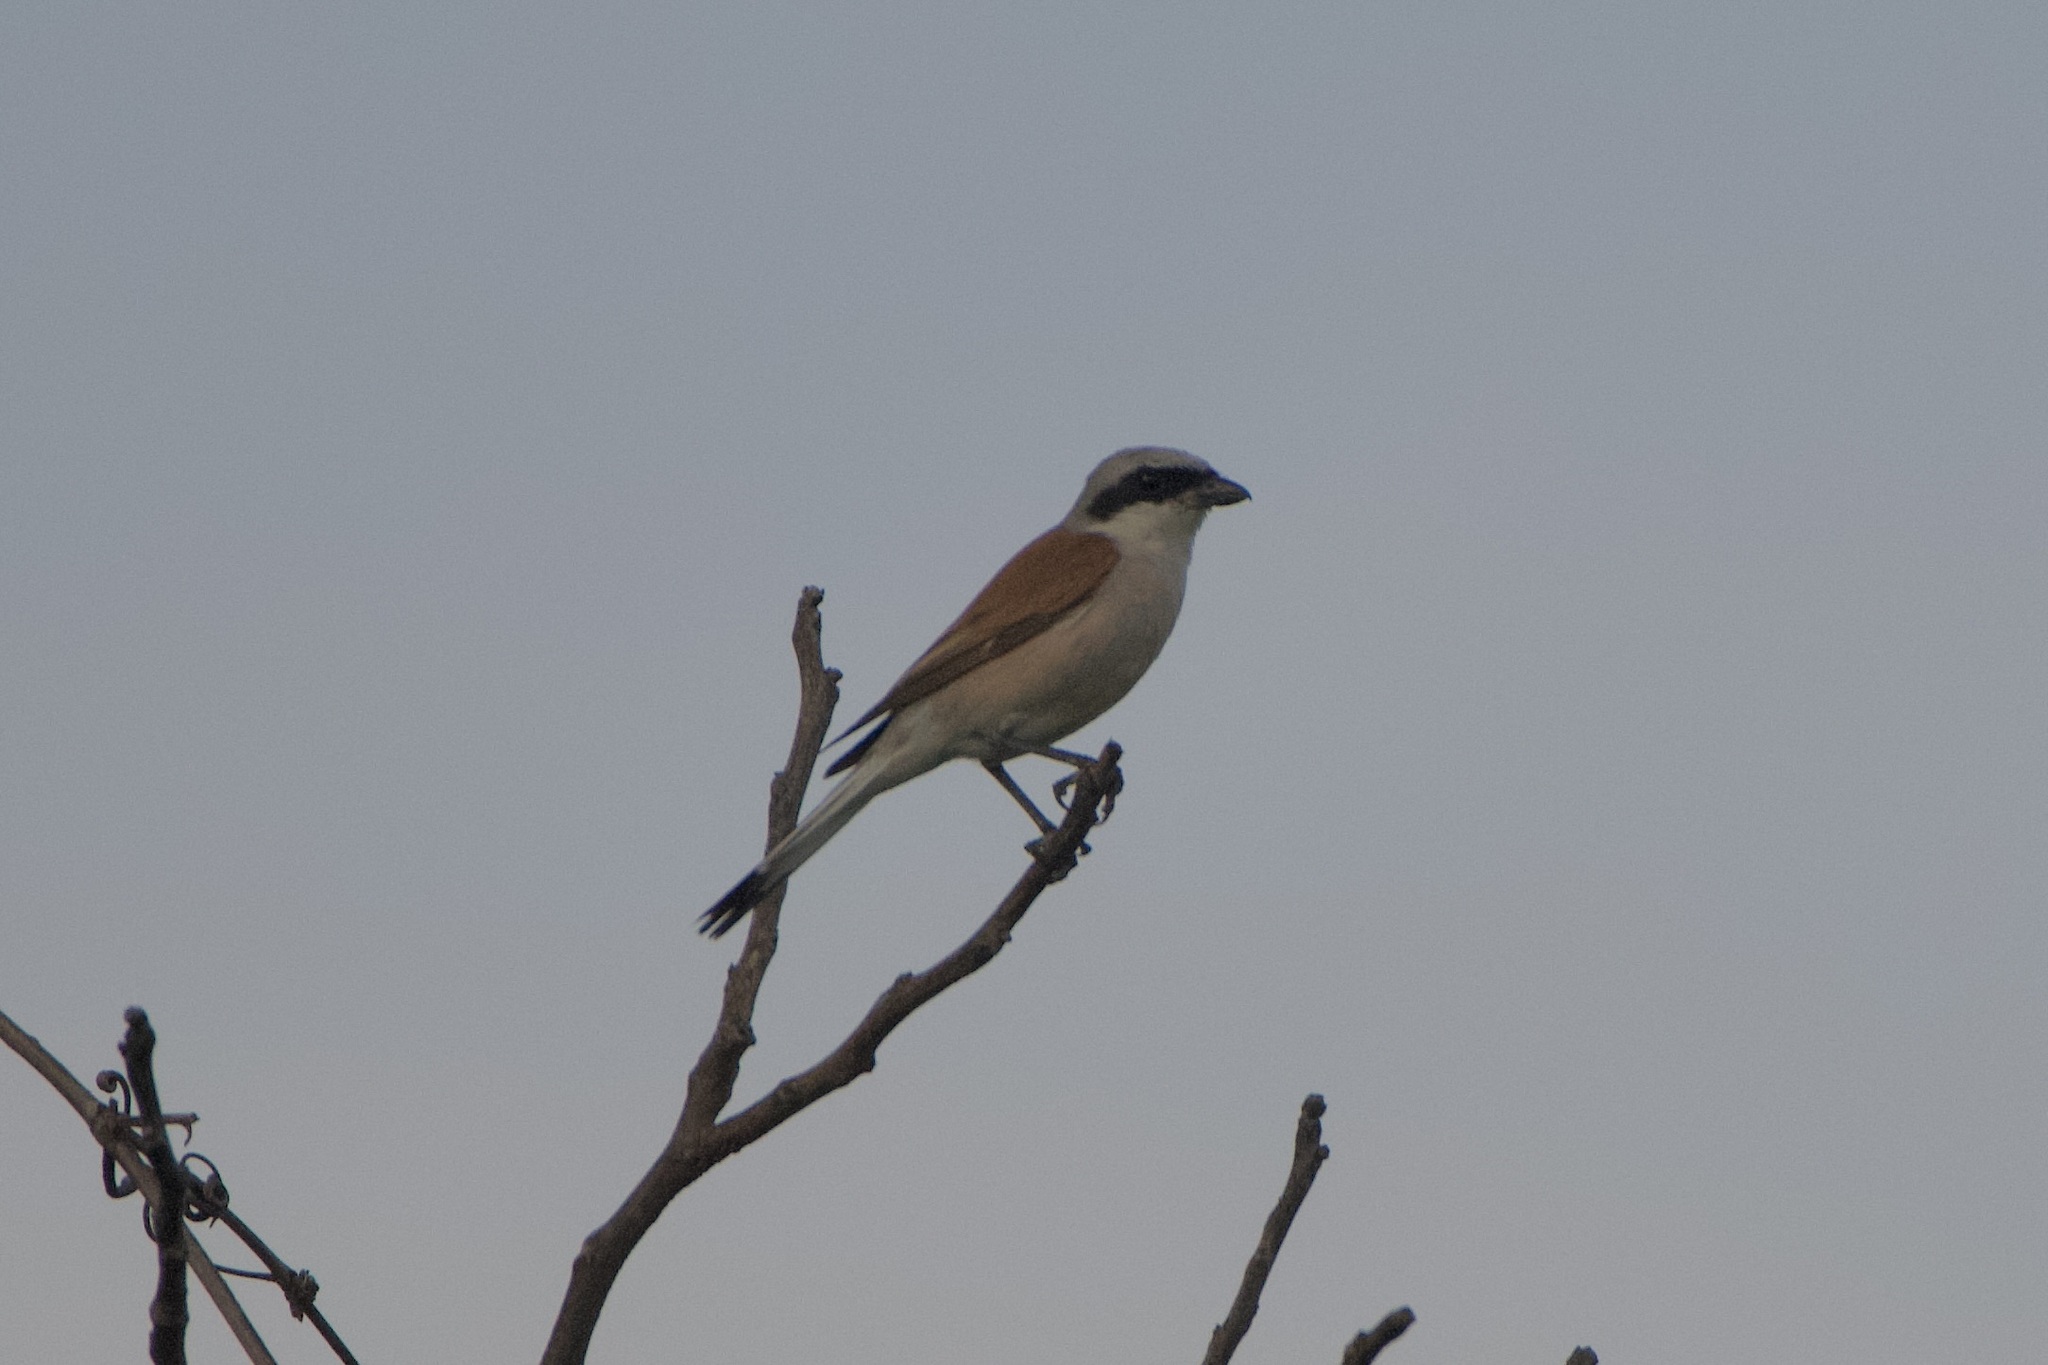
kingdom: Animalia
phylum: Chordata
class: Aves
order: Passeriformes
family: Laniidae
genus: Lanius
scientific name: Lanius collurio
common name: Red-backed shrike
